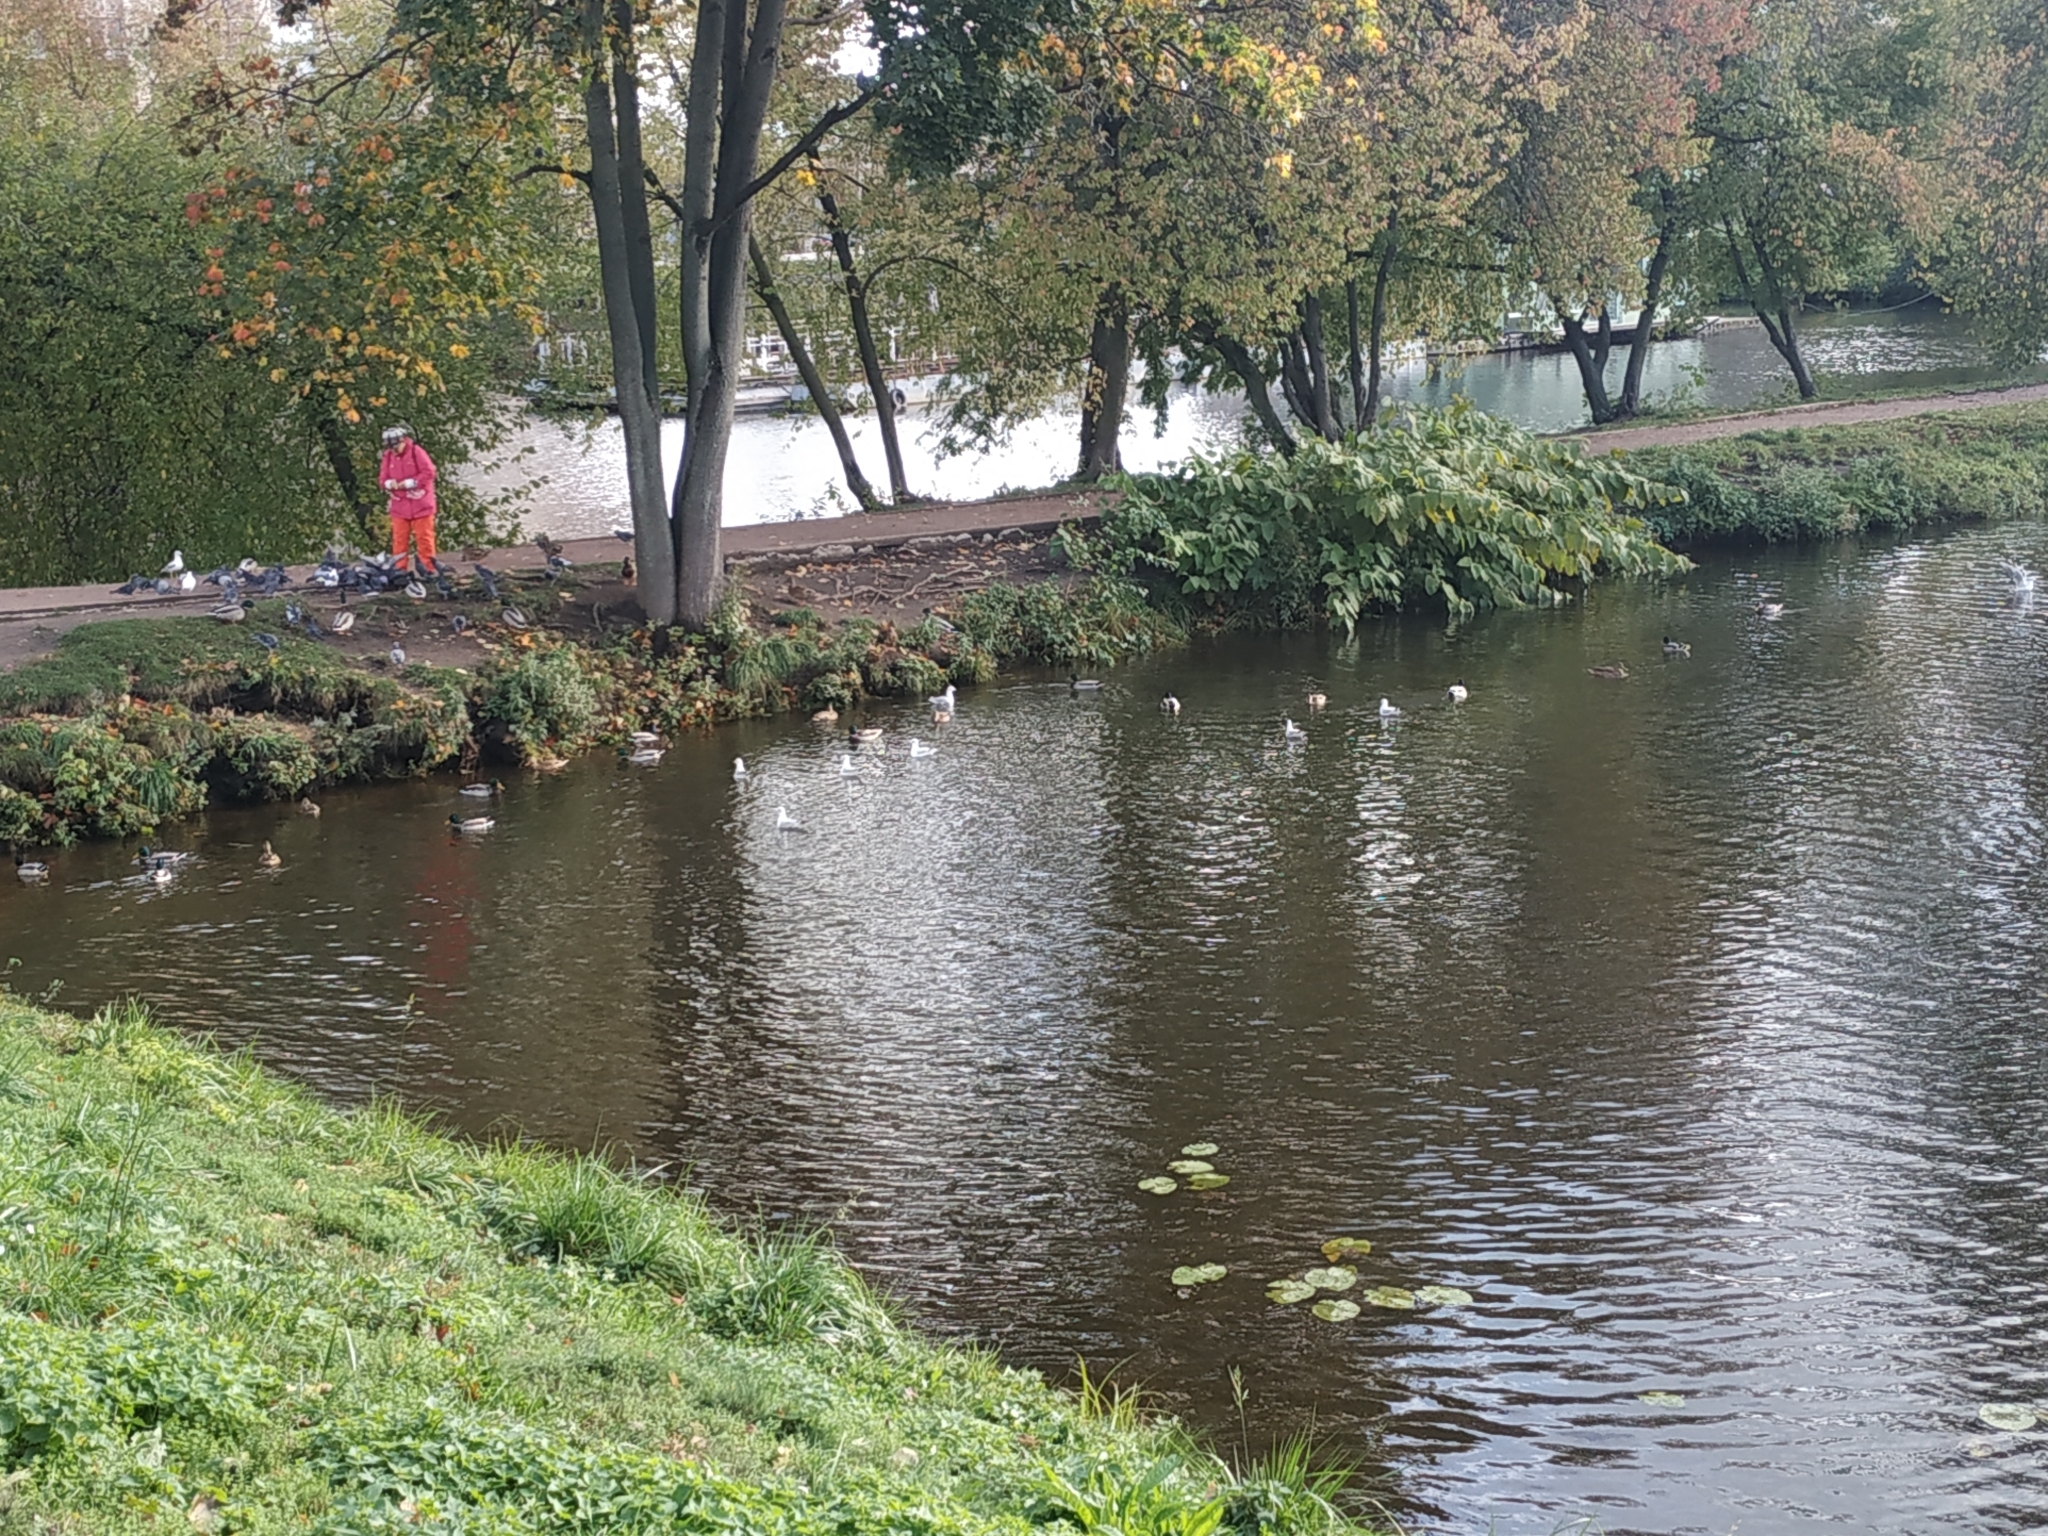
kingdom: Animalia
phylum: Chordata
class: Aves
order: Charadriiformes
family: Laridae
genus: Chroicocephalus
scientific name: Chroicocephalus ridibundus
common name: Black-headed gull
